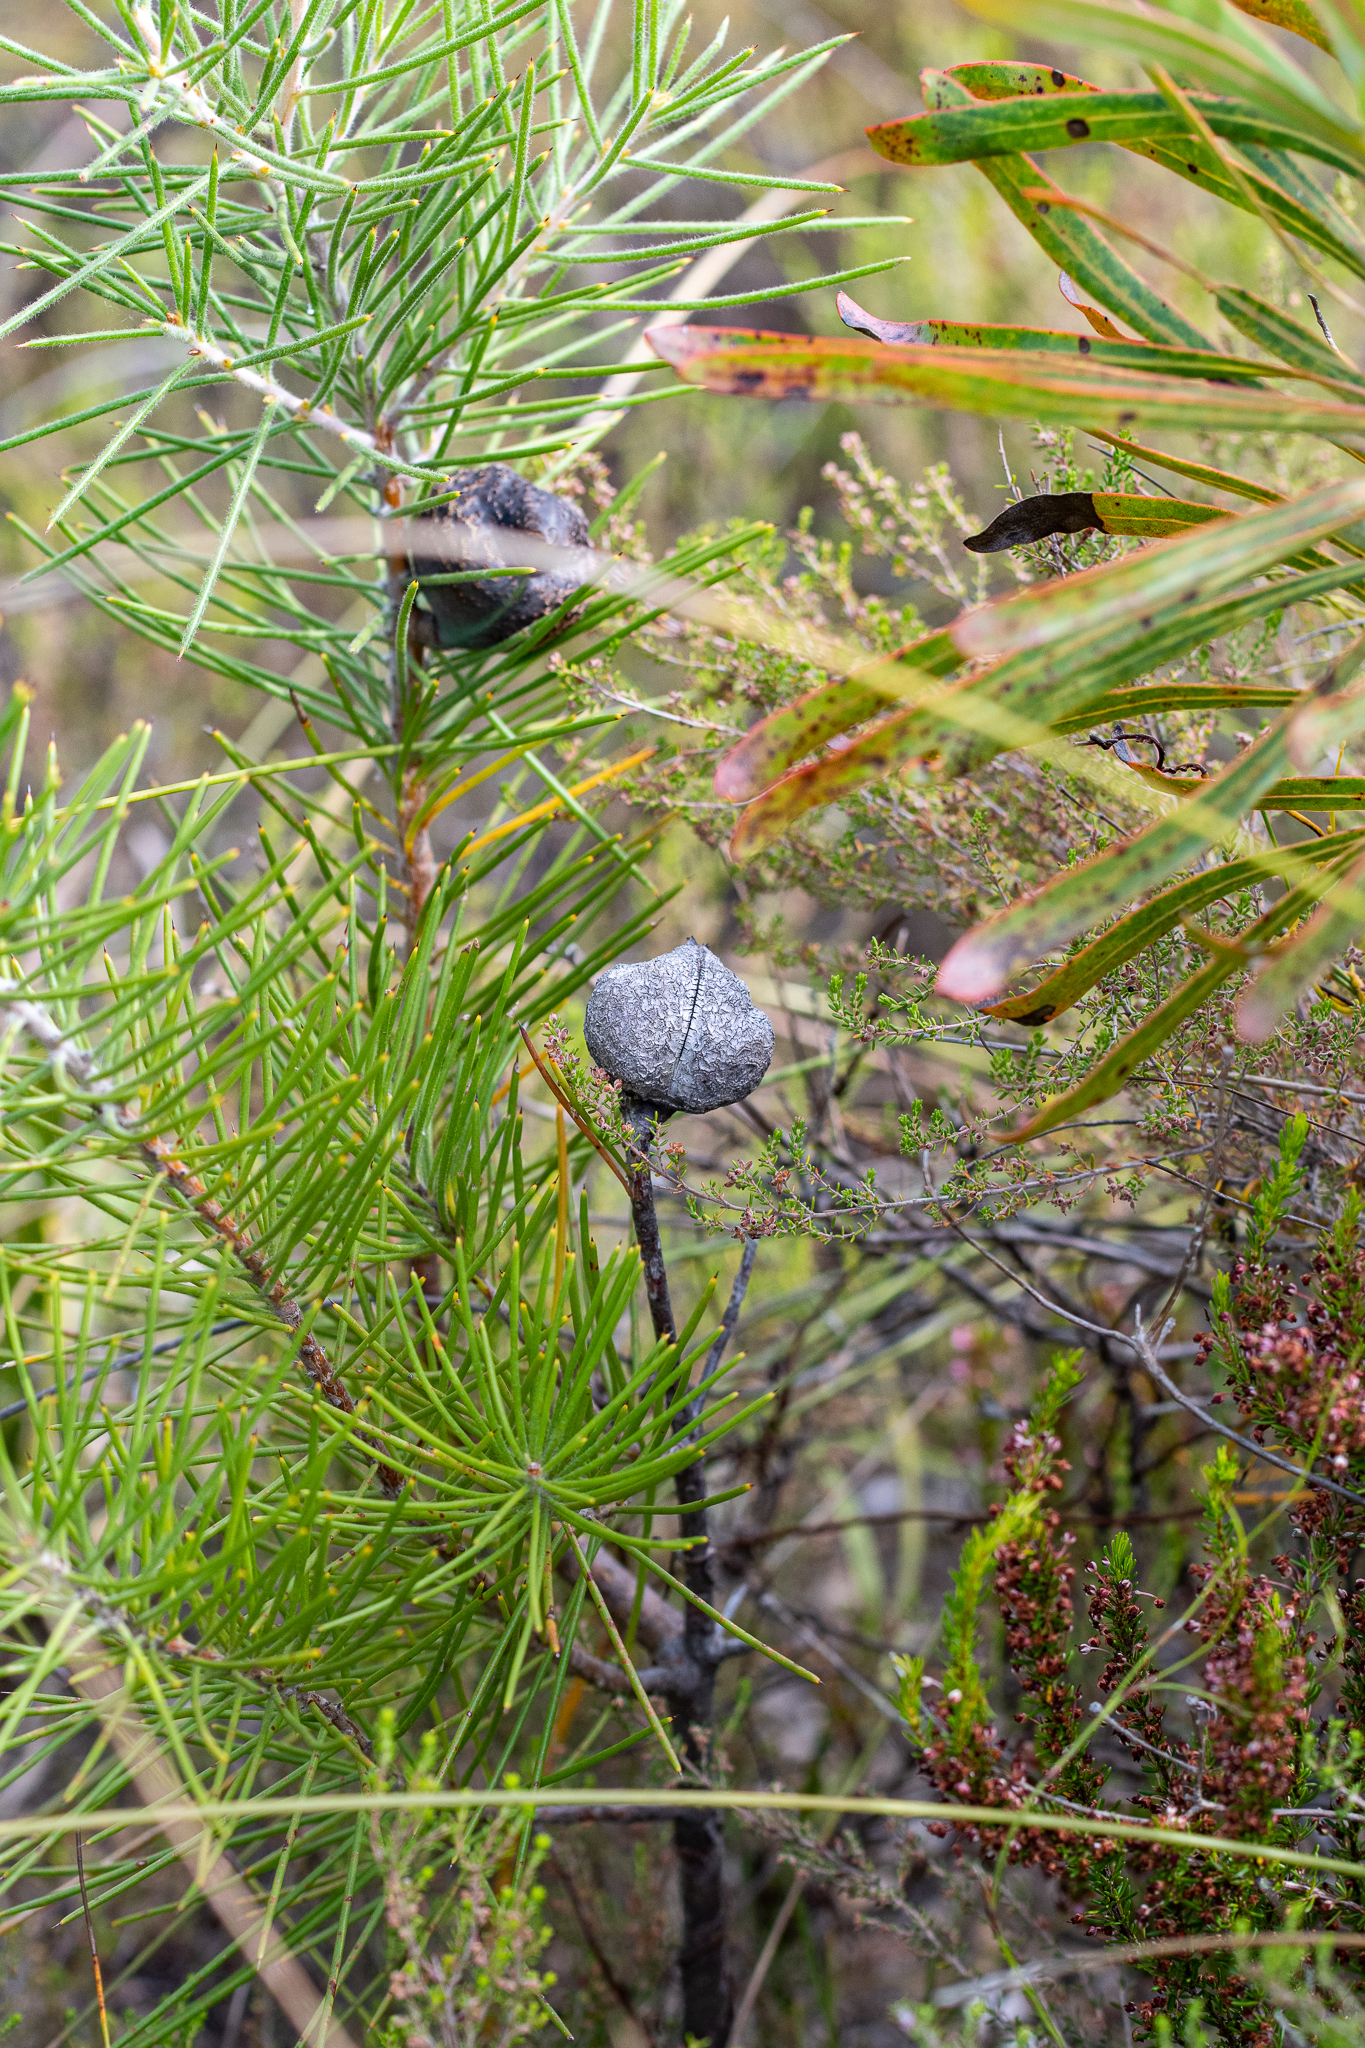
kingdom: Plantae
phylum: Tracheophyta
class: Magnoliopsida
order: Proteales
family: Proteaceae
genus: Hakea
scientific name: Hakea gibbosa
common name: Rock hakea
